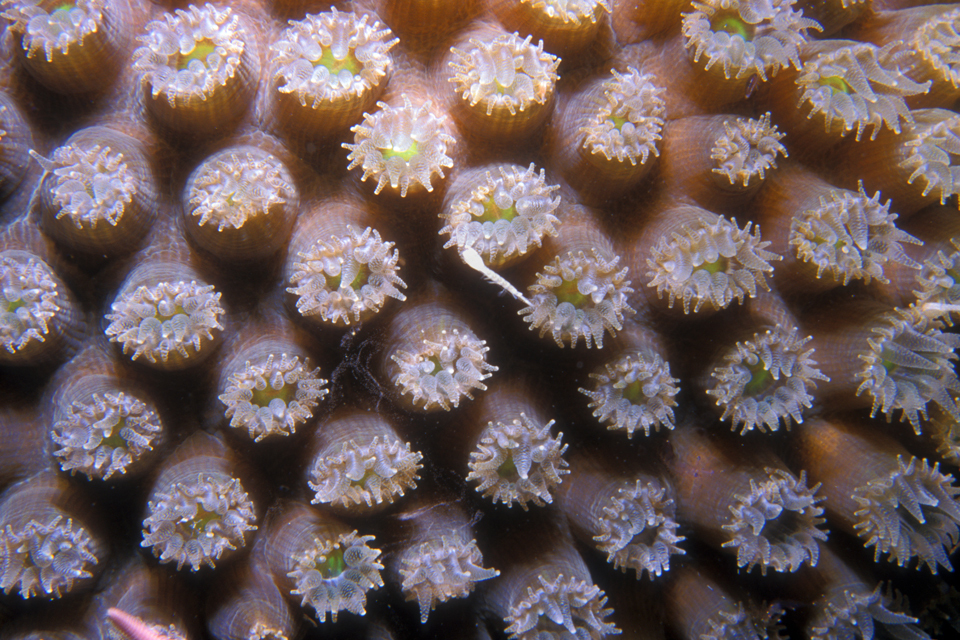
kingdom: Animalia
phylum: Cnidaria
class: Anthozoa
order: Scleractinia
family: Montastraeidae
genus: Montastraea
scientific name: Montastraea cavernosa
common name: Great star coral
